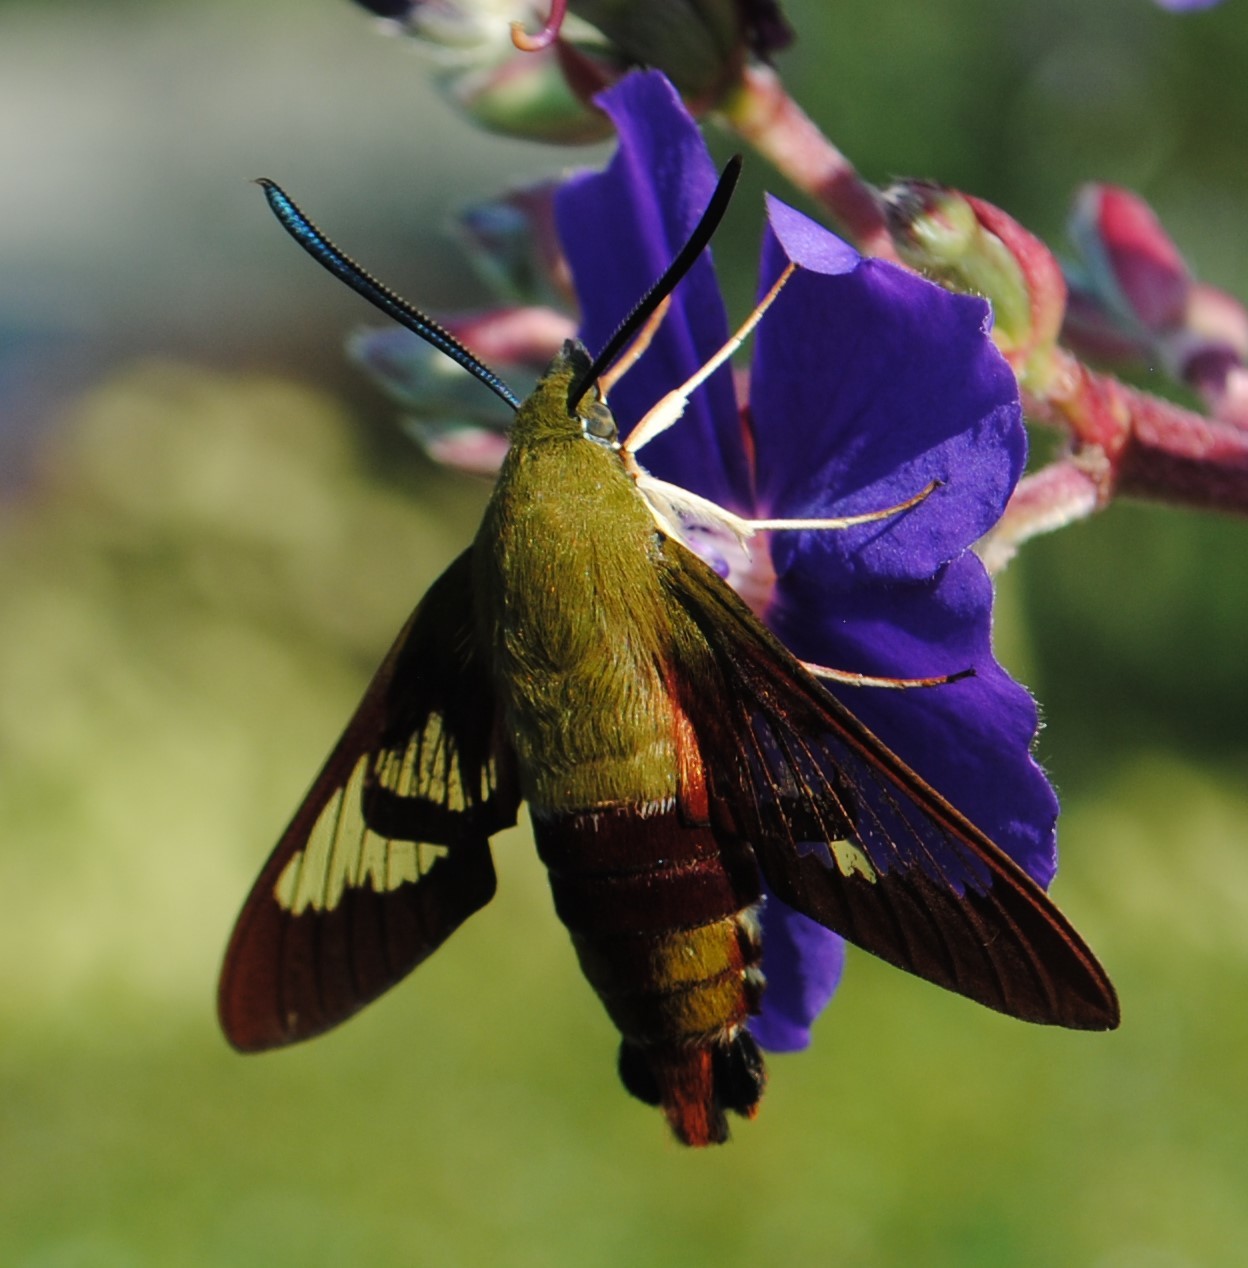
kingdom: Animalia
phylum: Arthropoda
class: Insecta
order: Lepidoptera
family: Sphingidae
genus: Hemaris
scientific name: Hemaris thysbe
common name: Common clear-wing
